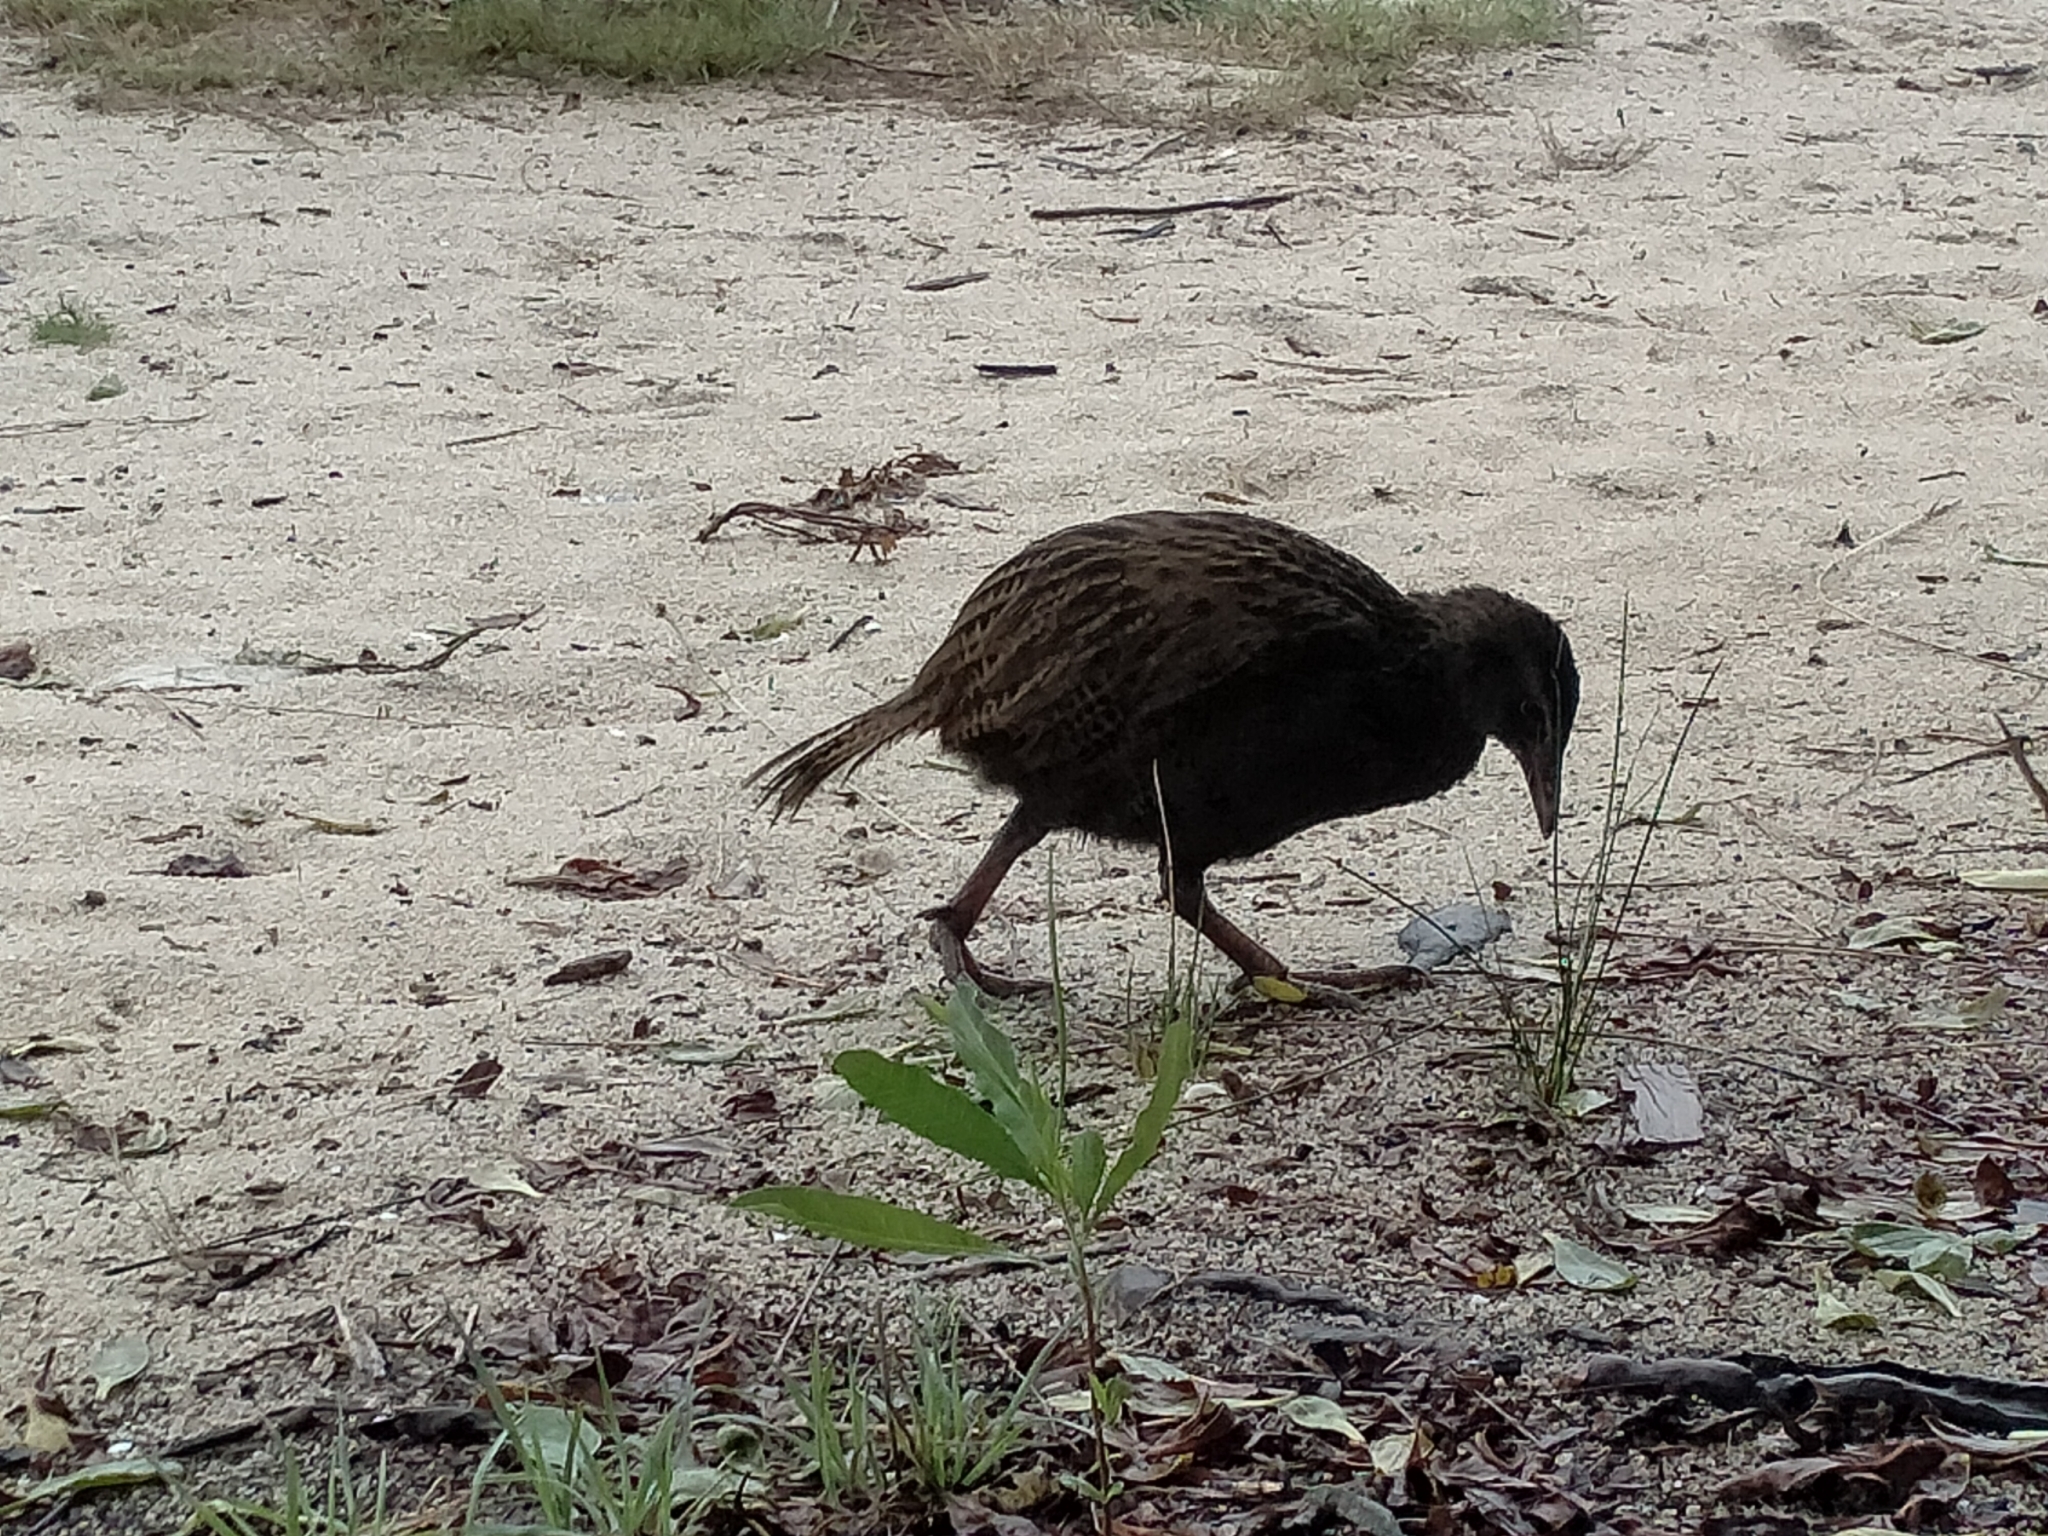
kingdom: Animalia
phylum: Chordata
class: Aves
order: Gruiformes
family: Rallidae
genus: Gallirallus
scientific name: Gallirallus australis
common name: Weka
